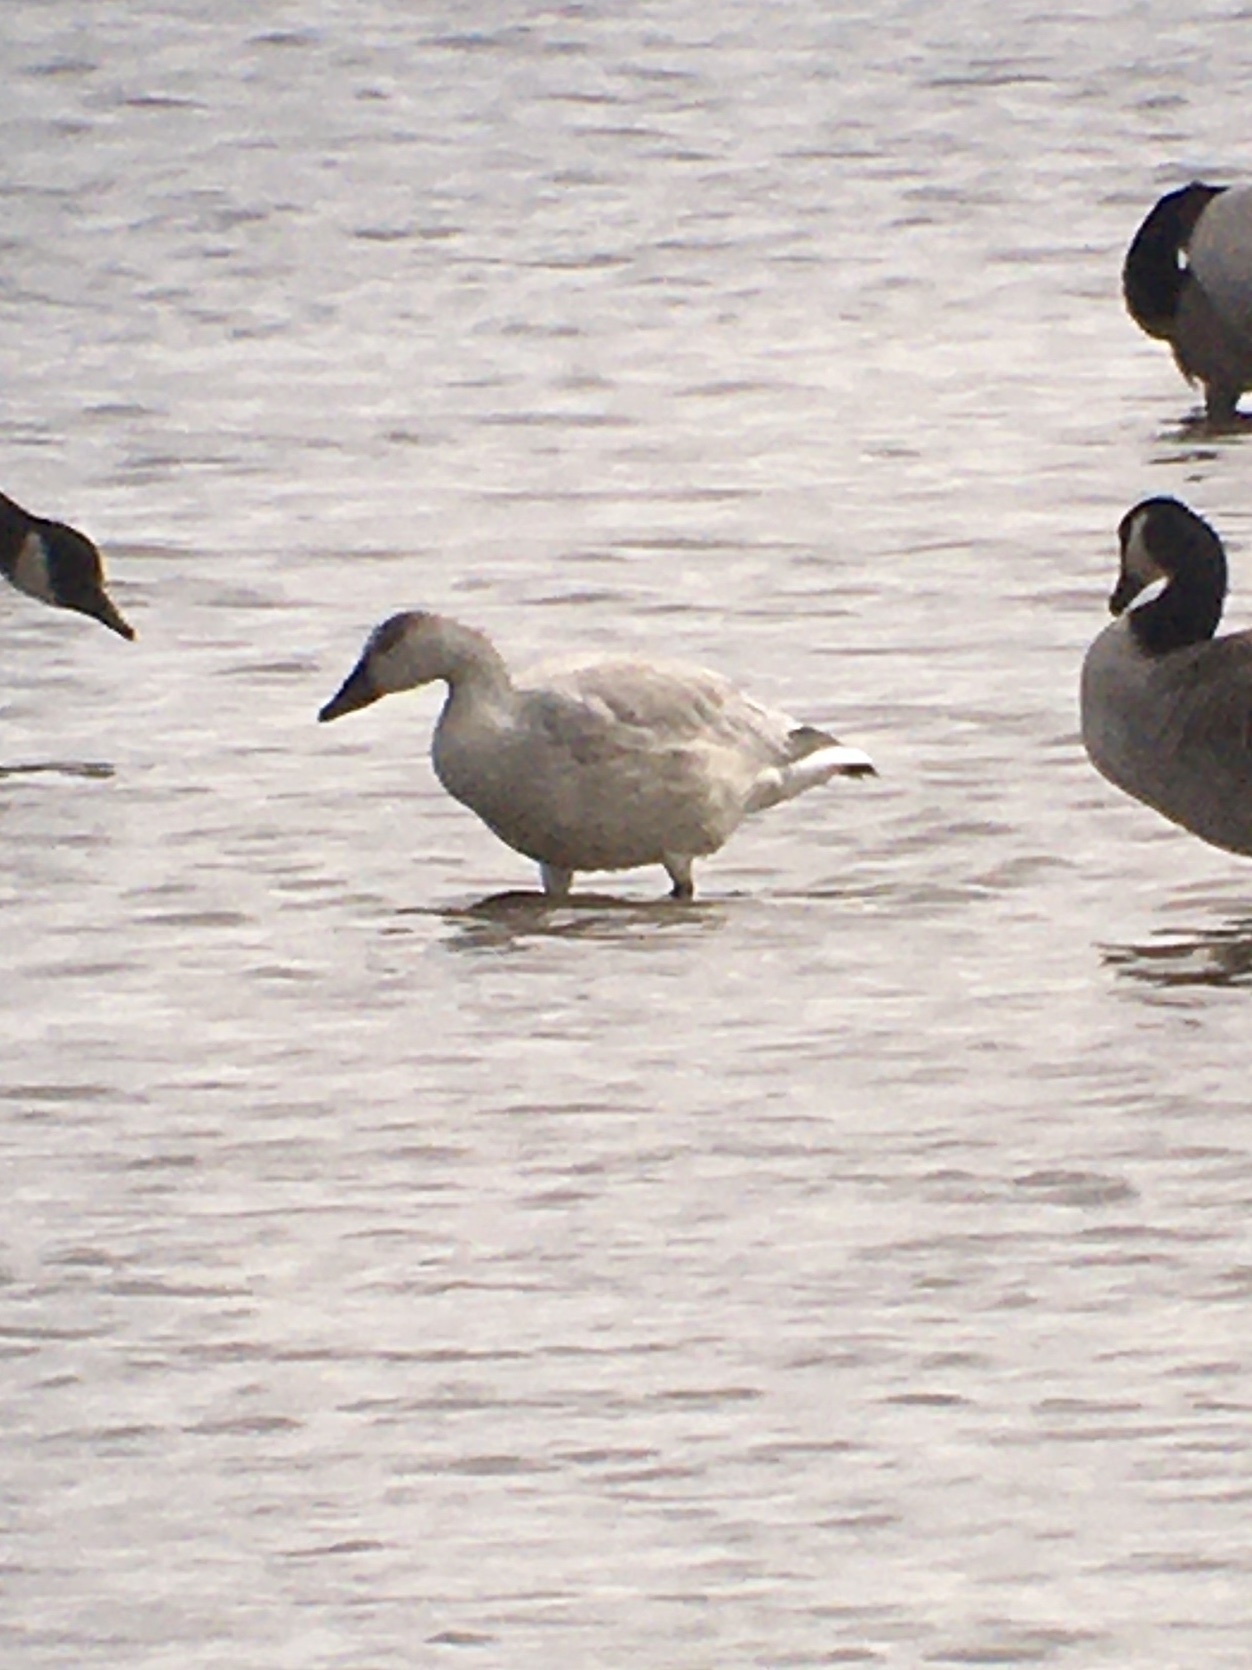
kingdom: Animalia
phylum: Chordata
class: Aves
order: Anseriformes
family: Anatidae
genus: Anser
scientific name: Anser caerulescens
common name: Snow goose
